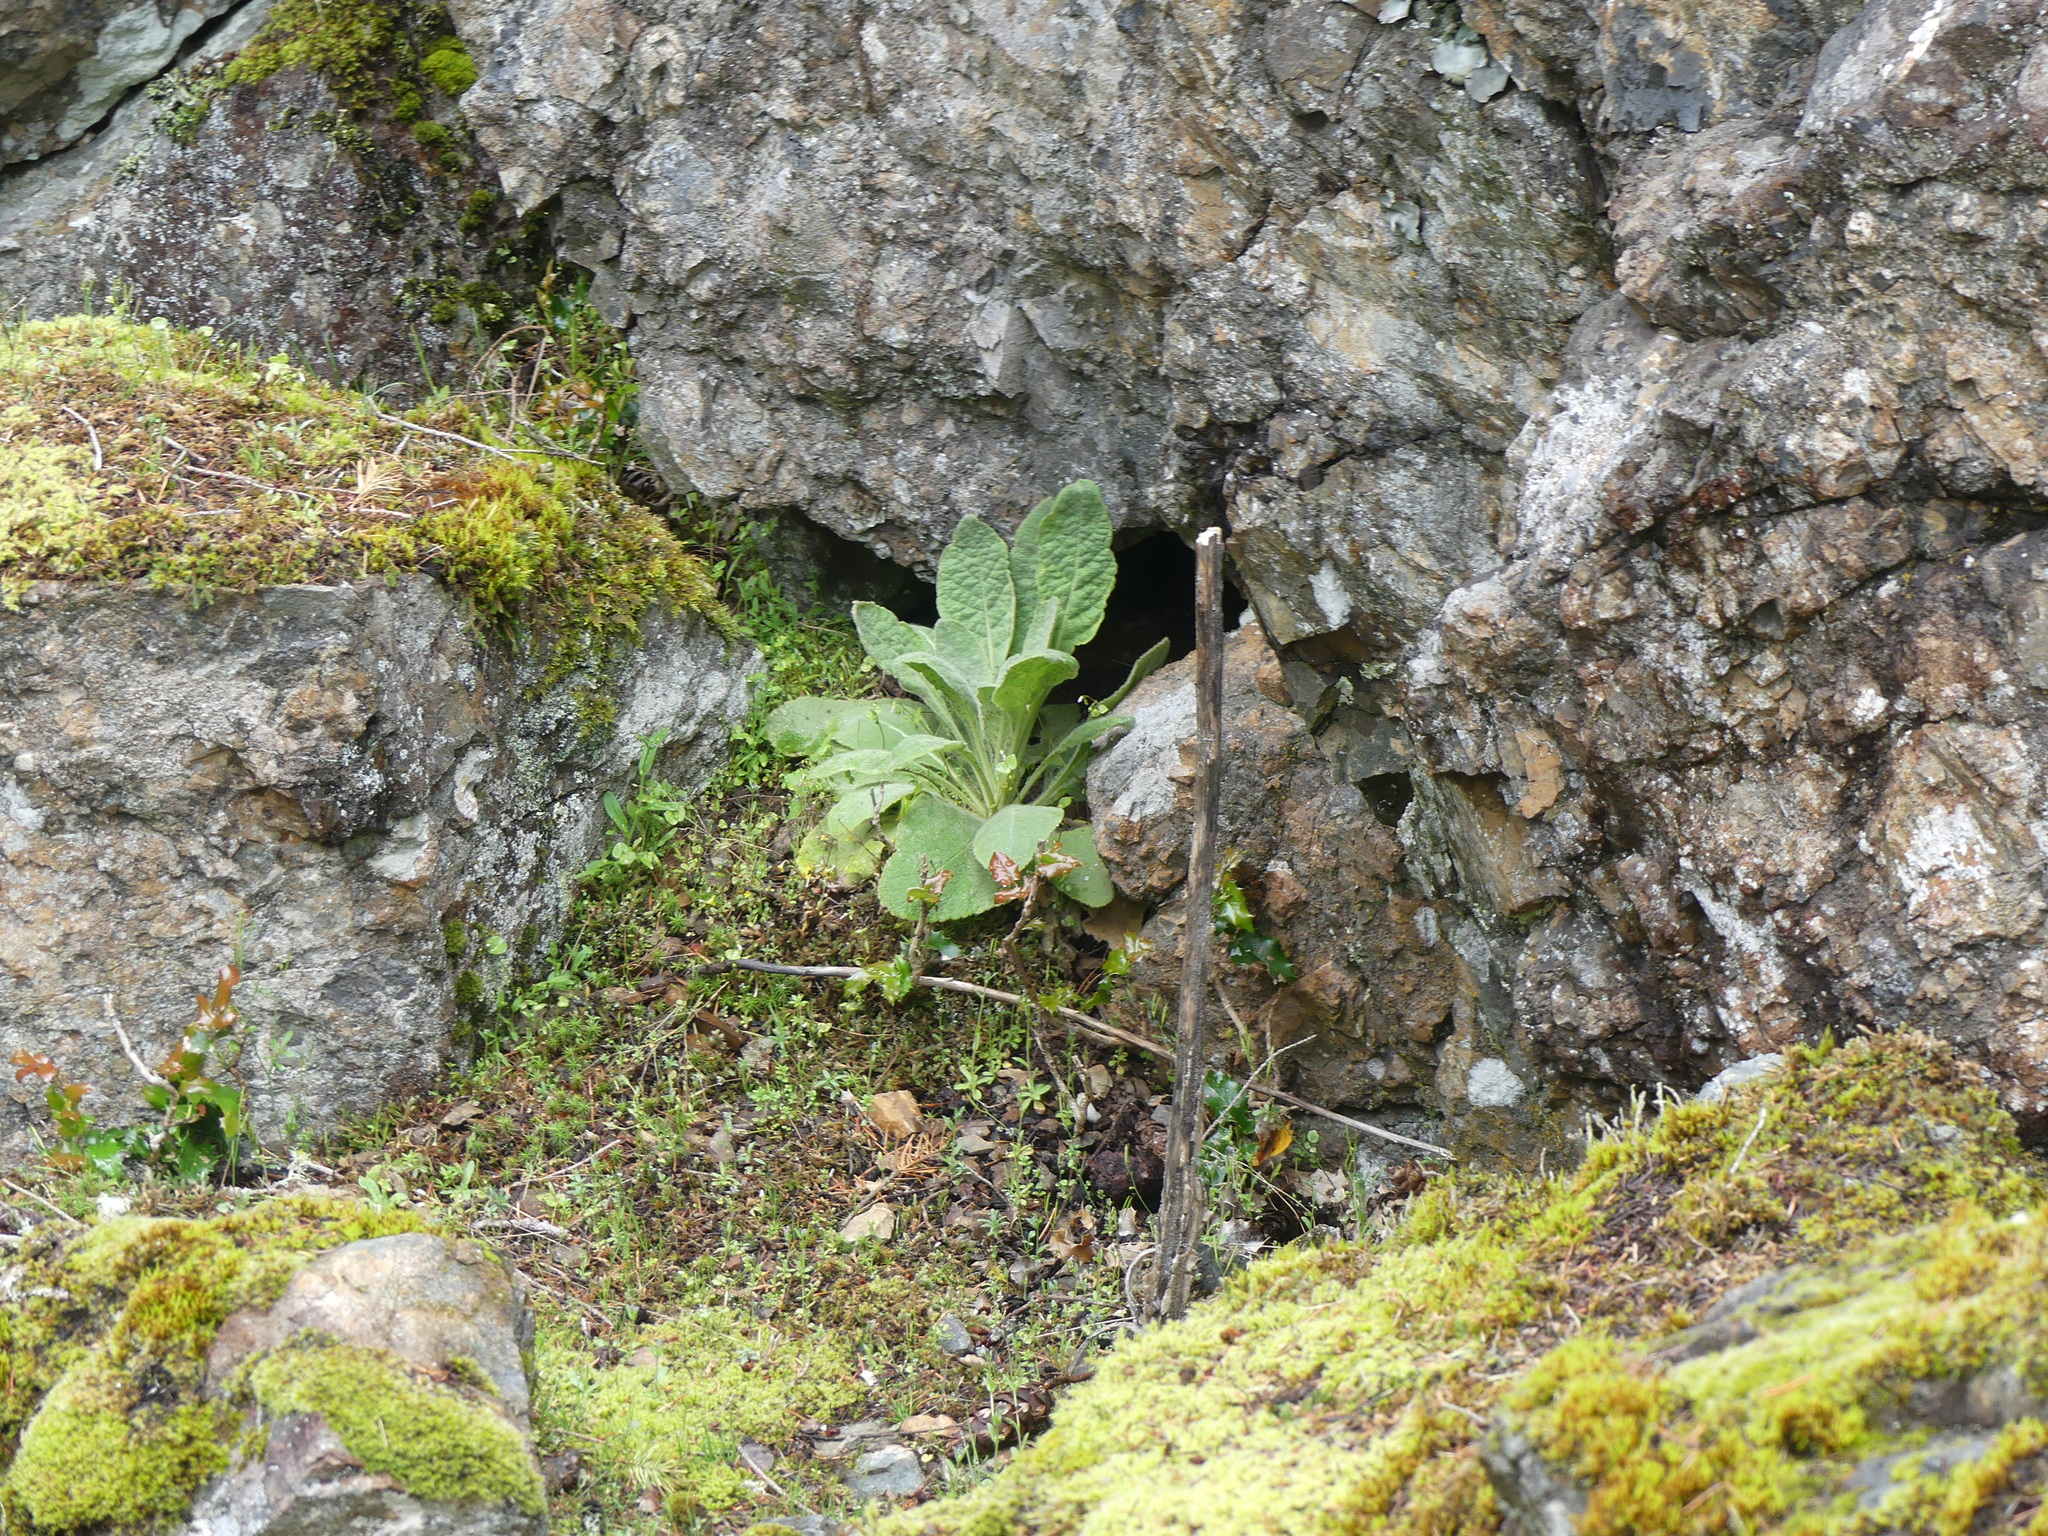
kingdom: Plantae
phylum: Tracheophyta
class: Magnoliopsida
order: Lamiales
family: Plantaginaceae
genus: Digitalis
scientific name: Digitalis purpurea
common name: Foxglove
